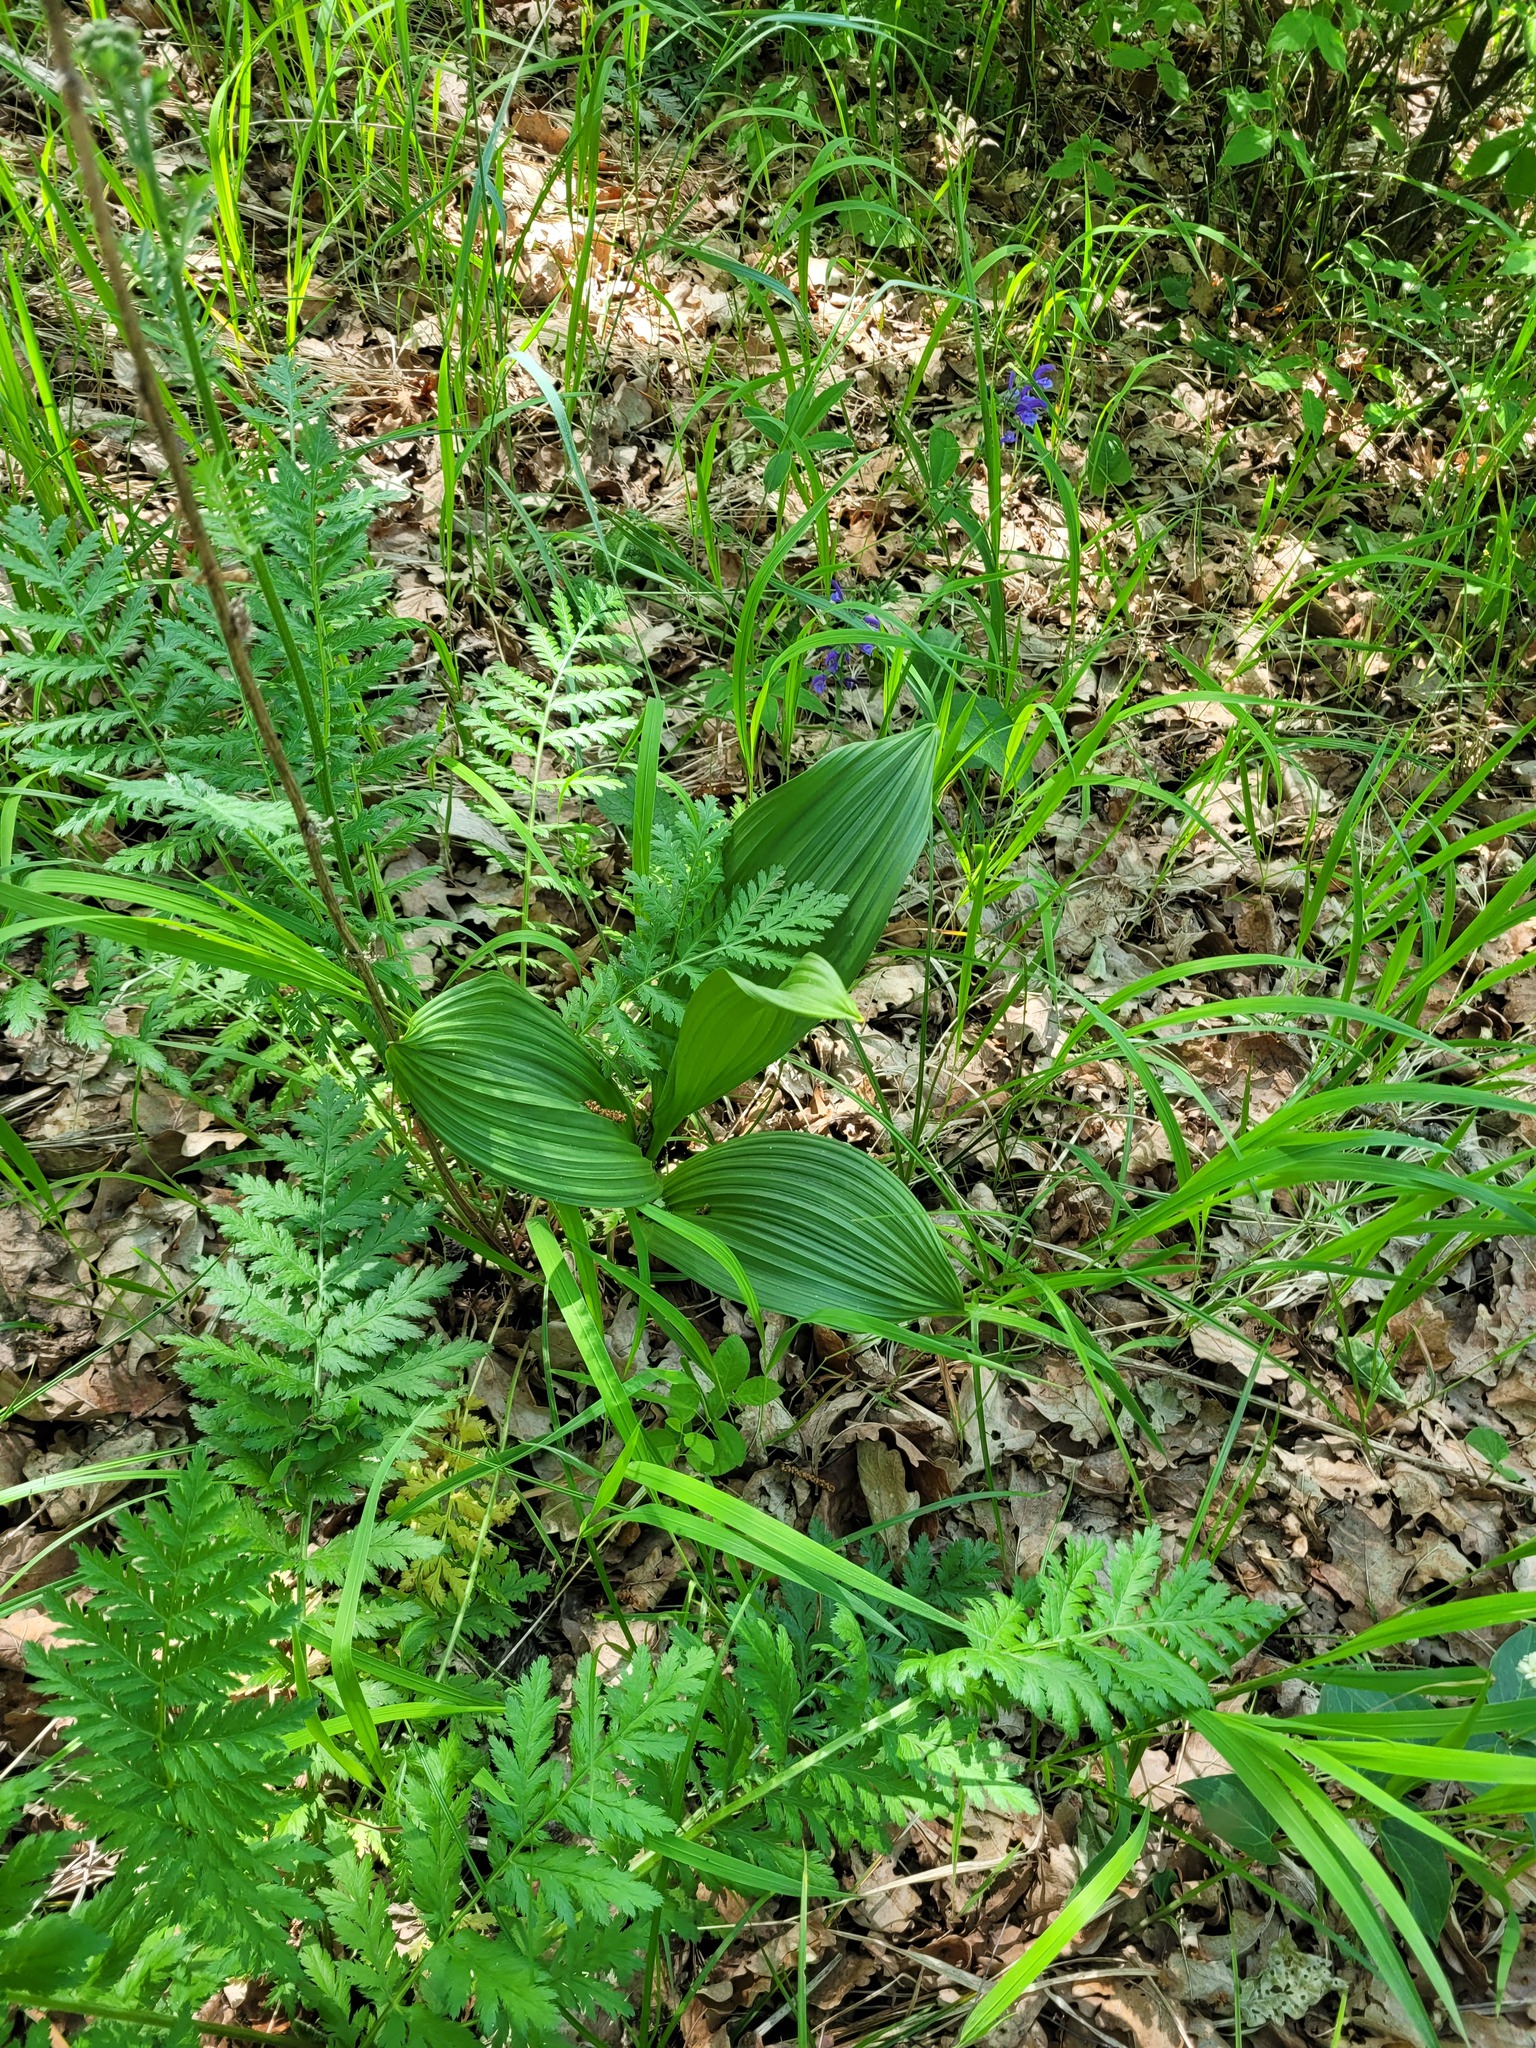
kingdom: Plantae
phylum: Tracheophyta
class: Liliopsida
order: Liliales
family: Melanthiaceae
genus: Veratrum
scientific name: Veratrum nigrum
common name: Black veratrum
